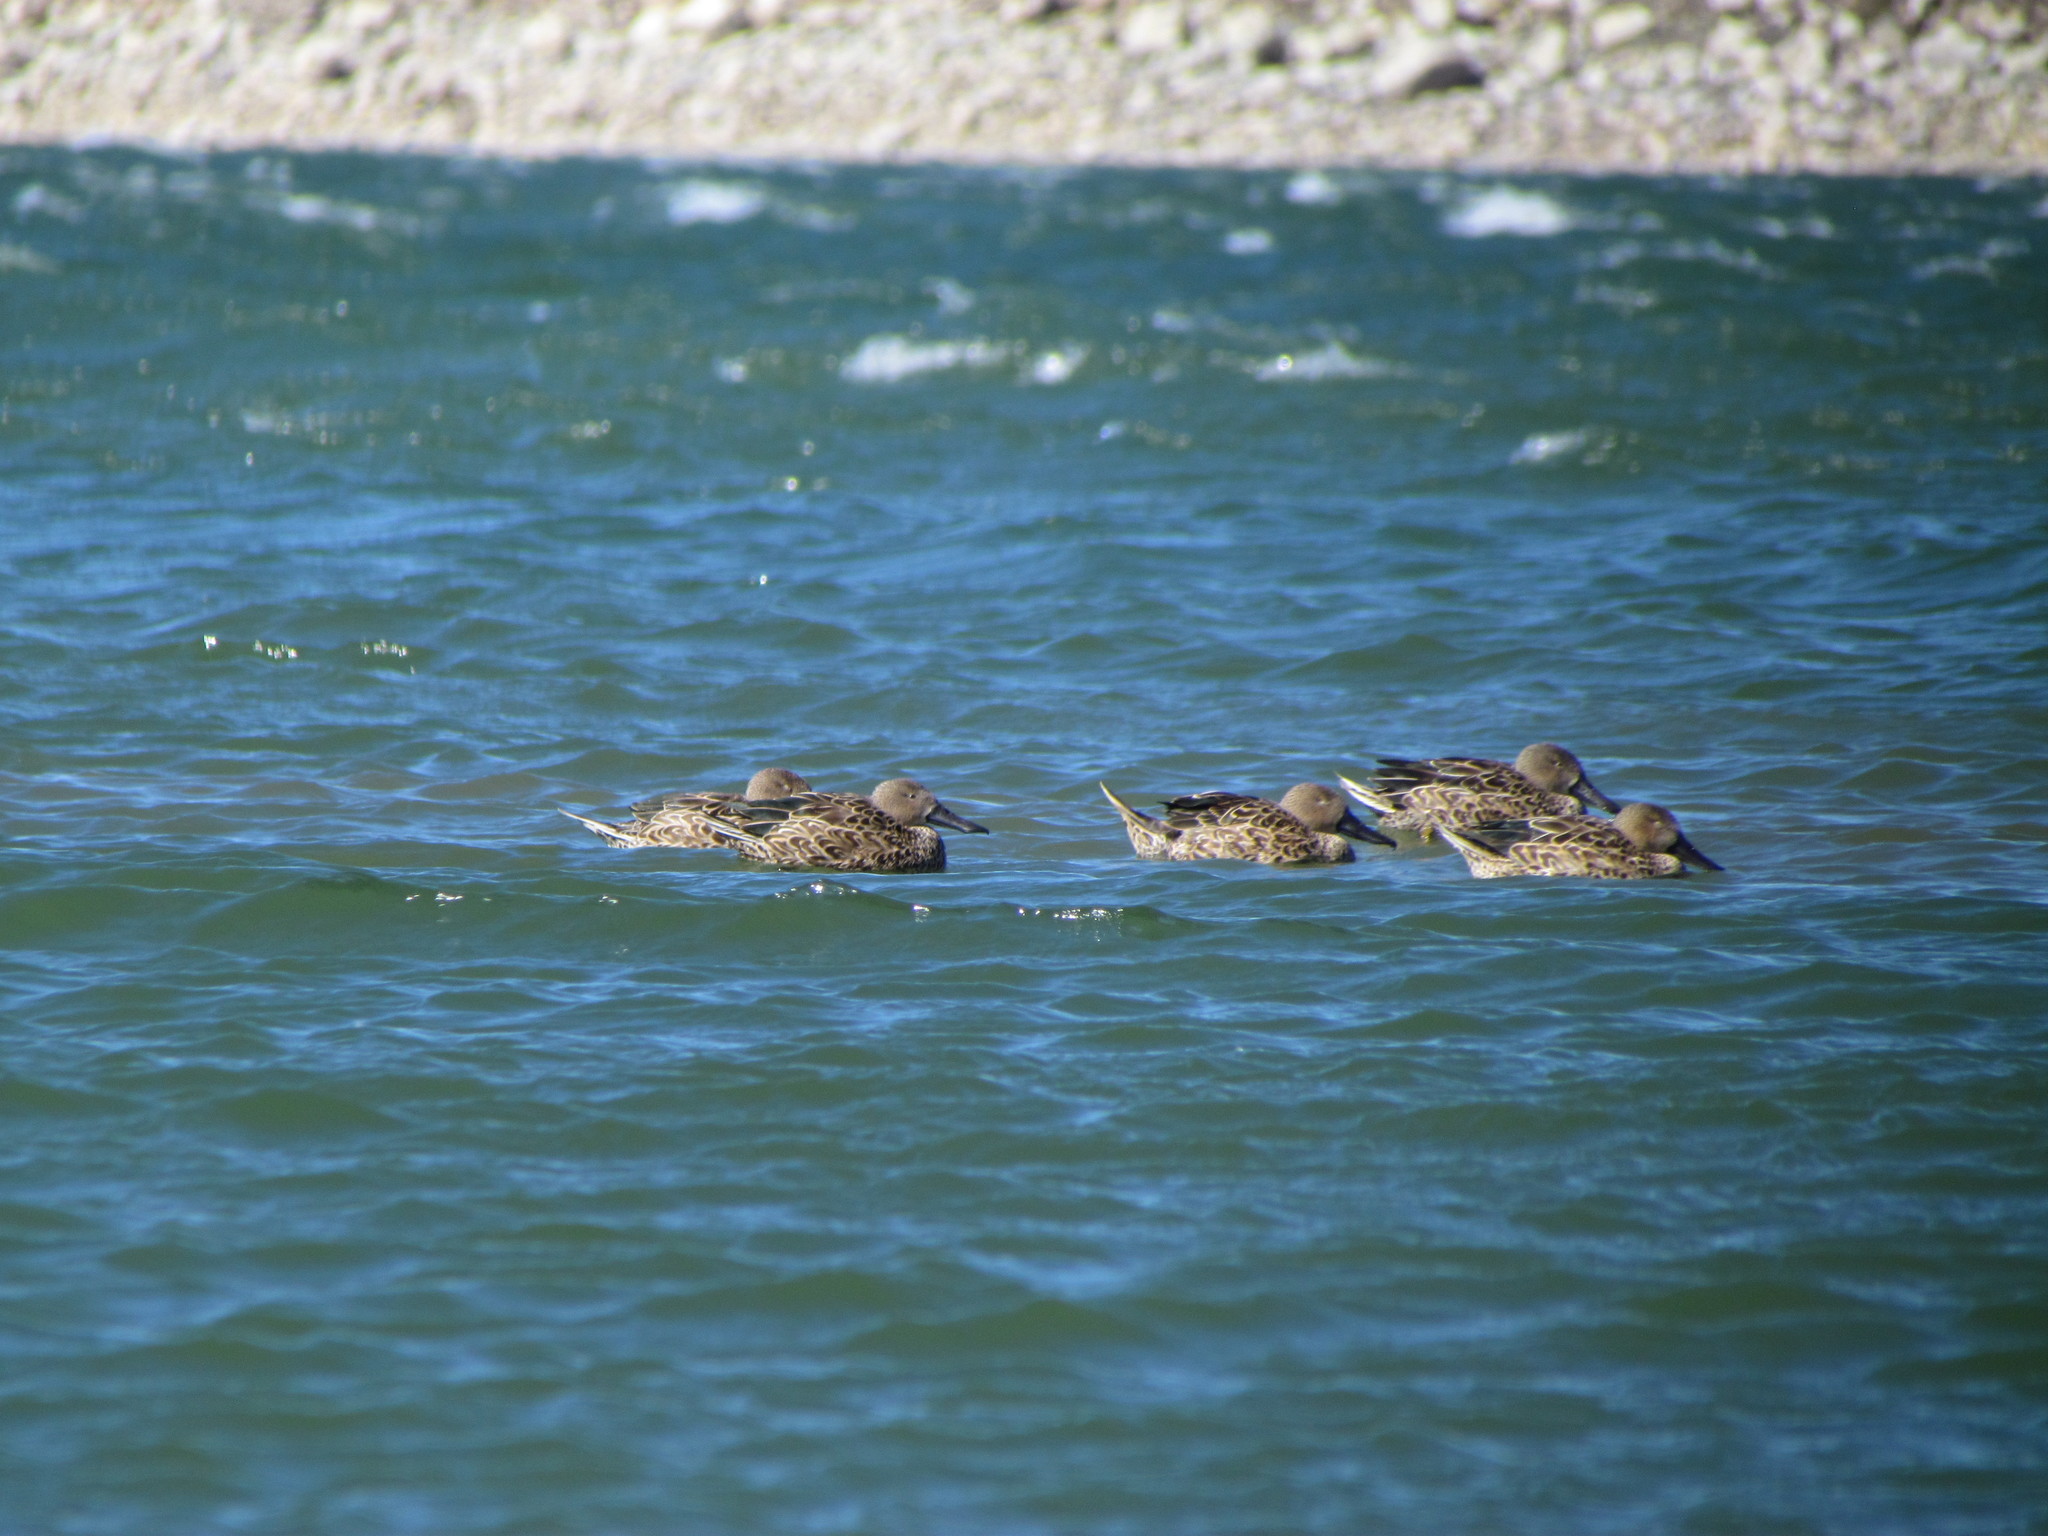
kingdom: Animalia
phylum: Chordata
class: Aves
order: Anseriformes
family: Anatidae
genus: Spatula
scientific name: Spatula platalea
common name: Red shoveler
